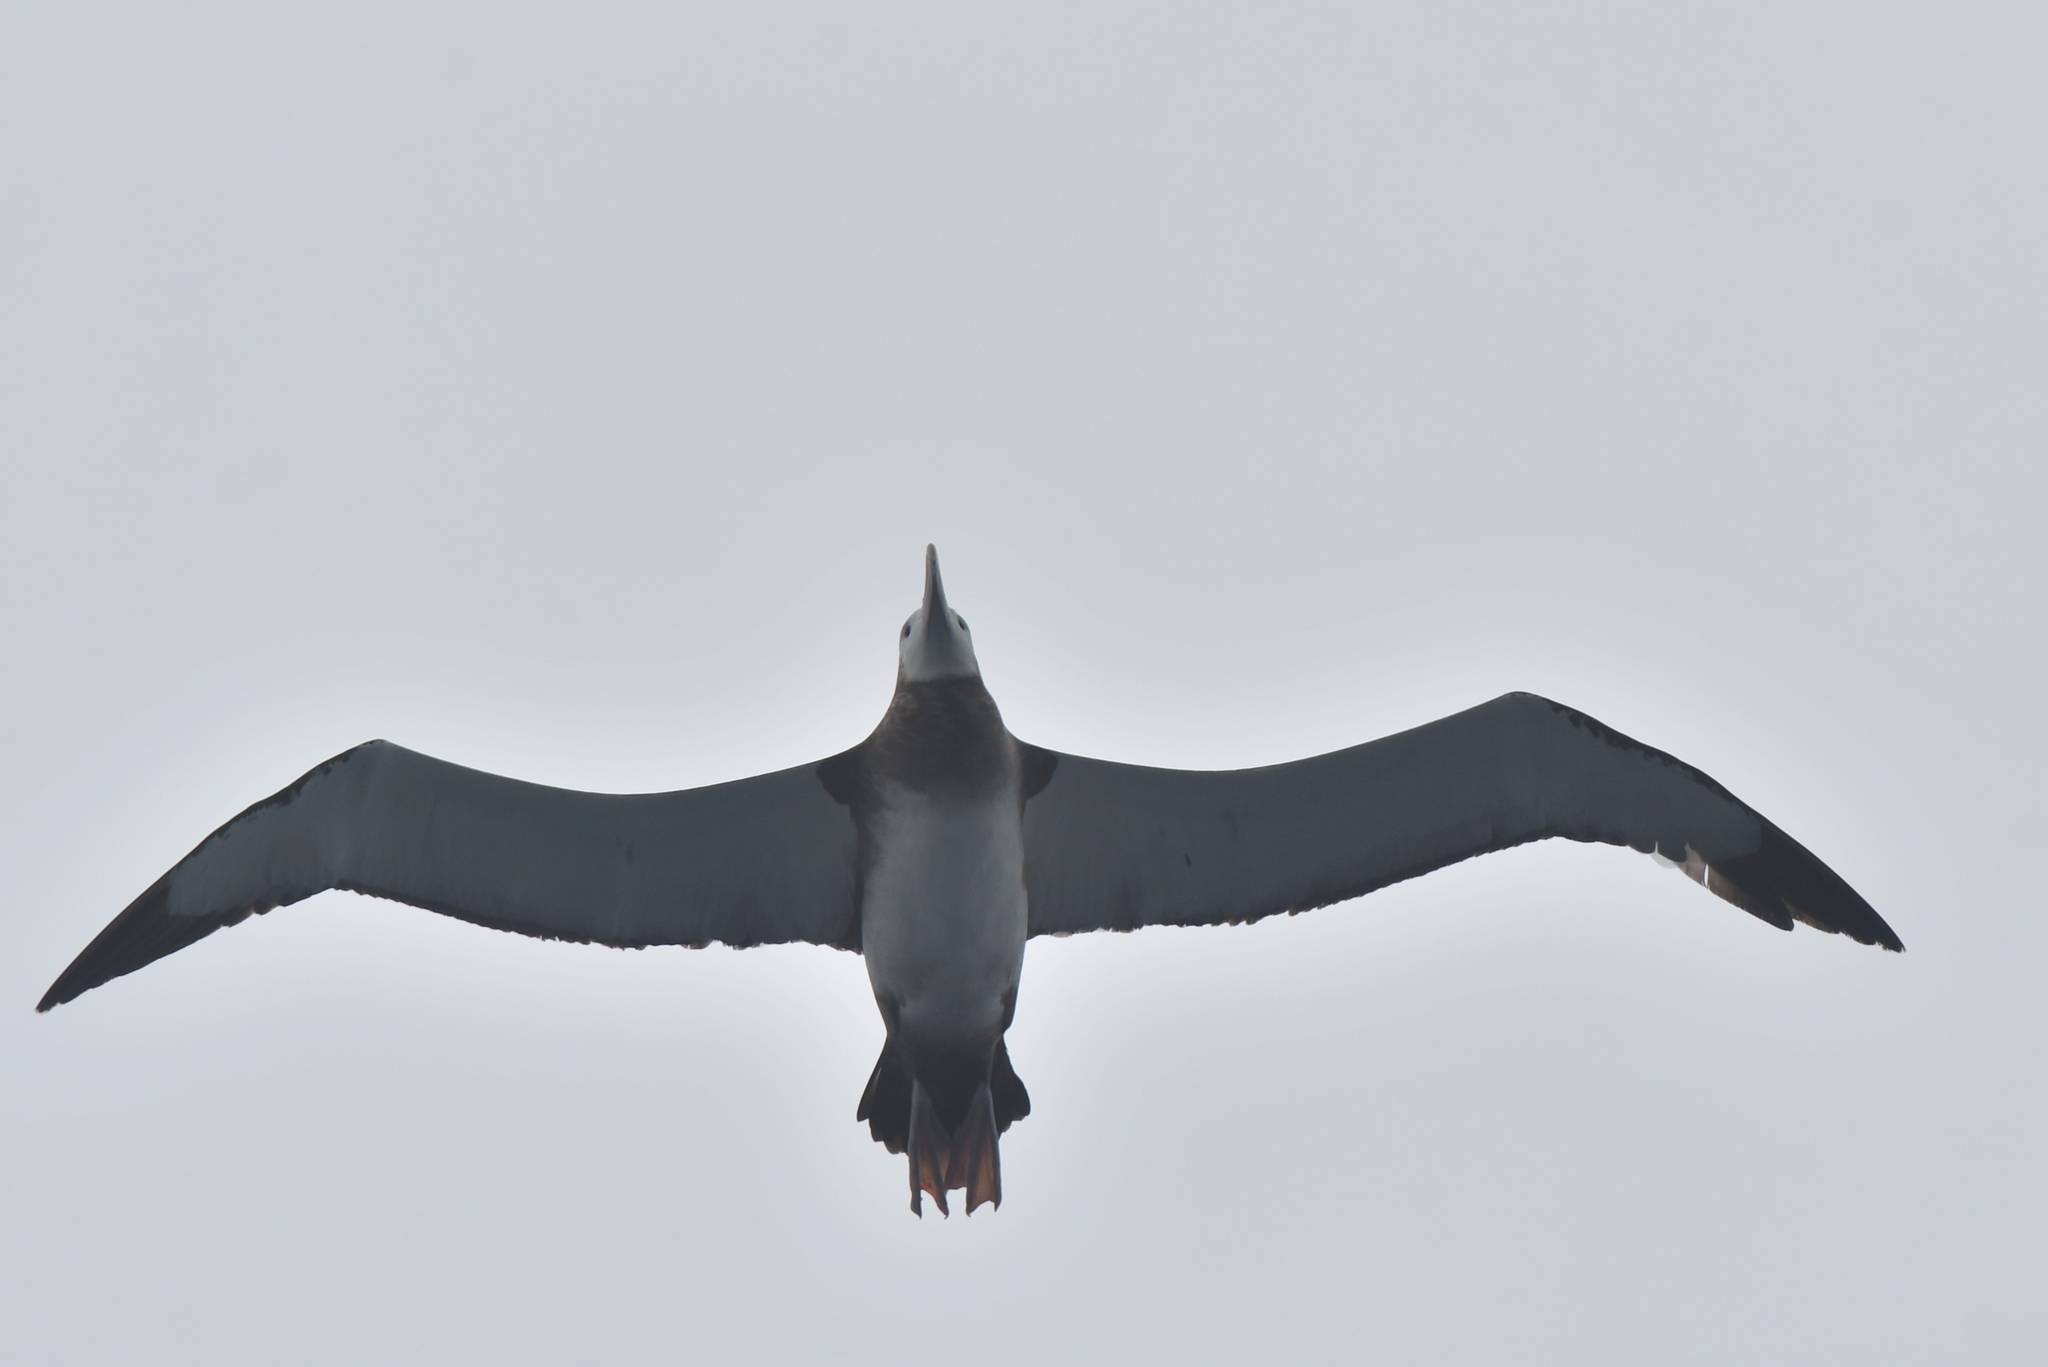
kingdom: Animalia
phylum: Chordata
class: Aves
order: Procellariiformes
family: Diomedeidae
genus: Diomedea
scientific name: Diomedea antipodensis
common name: Antipodean albatross
